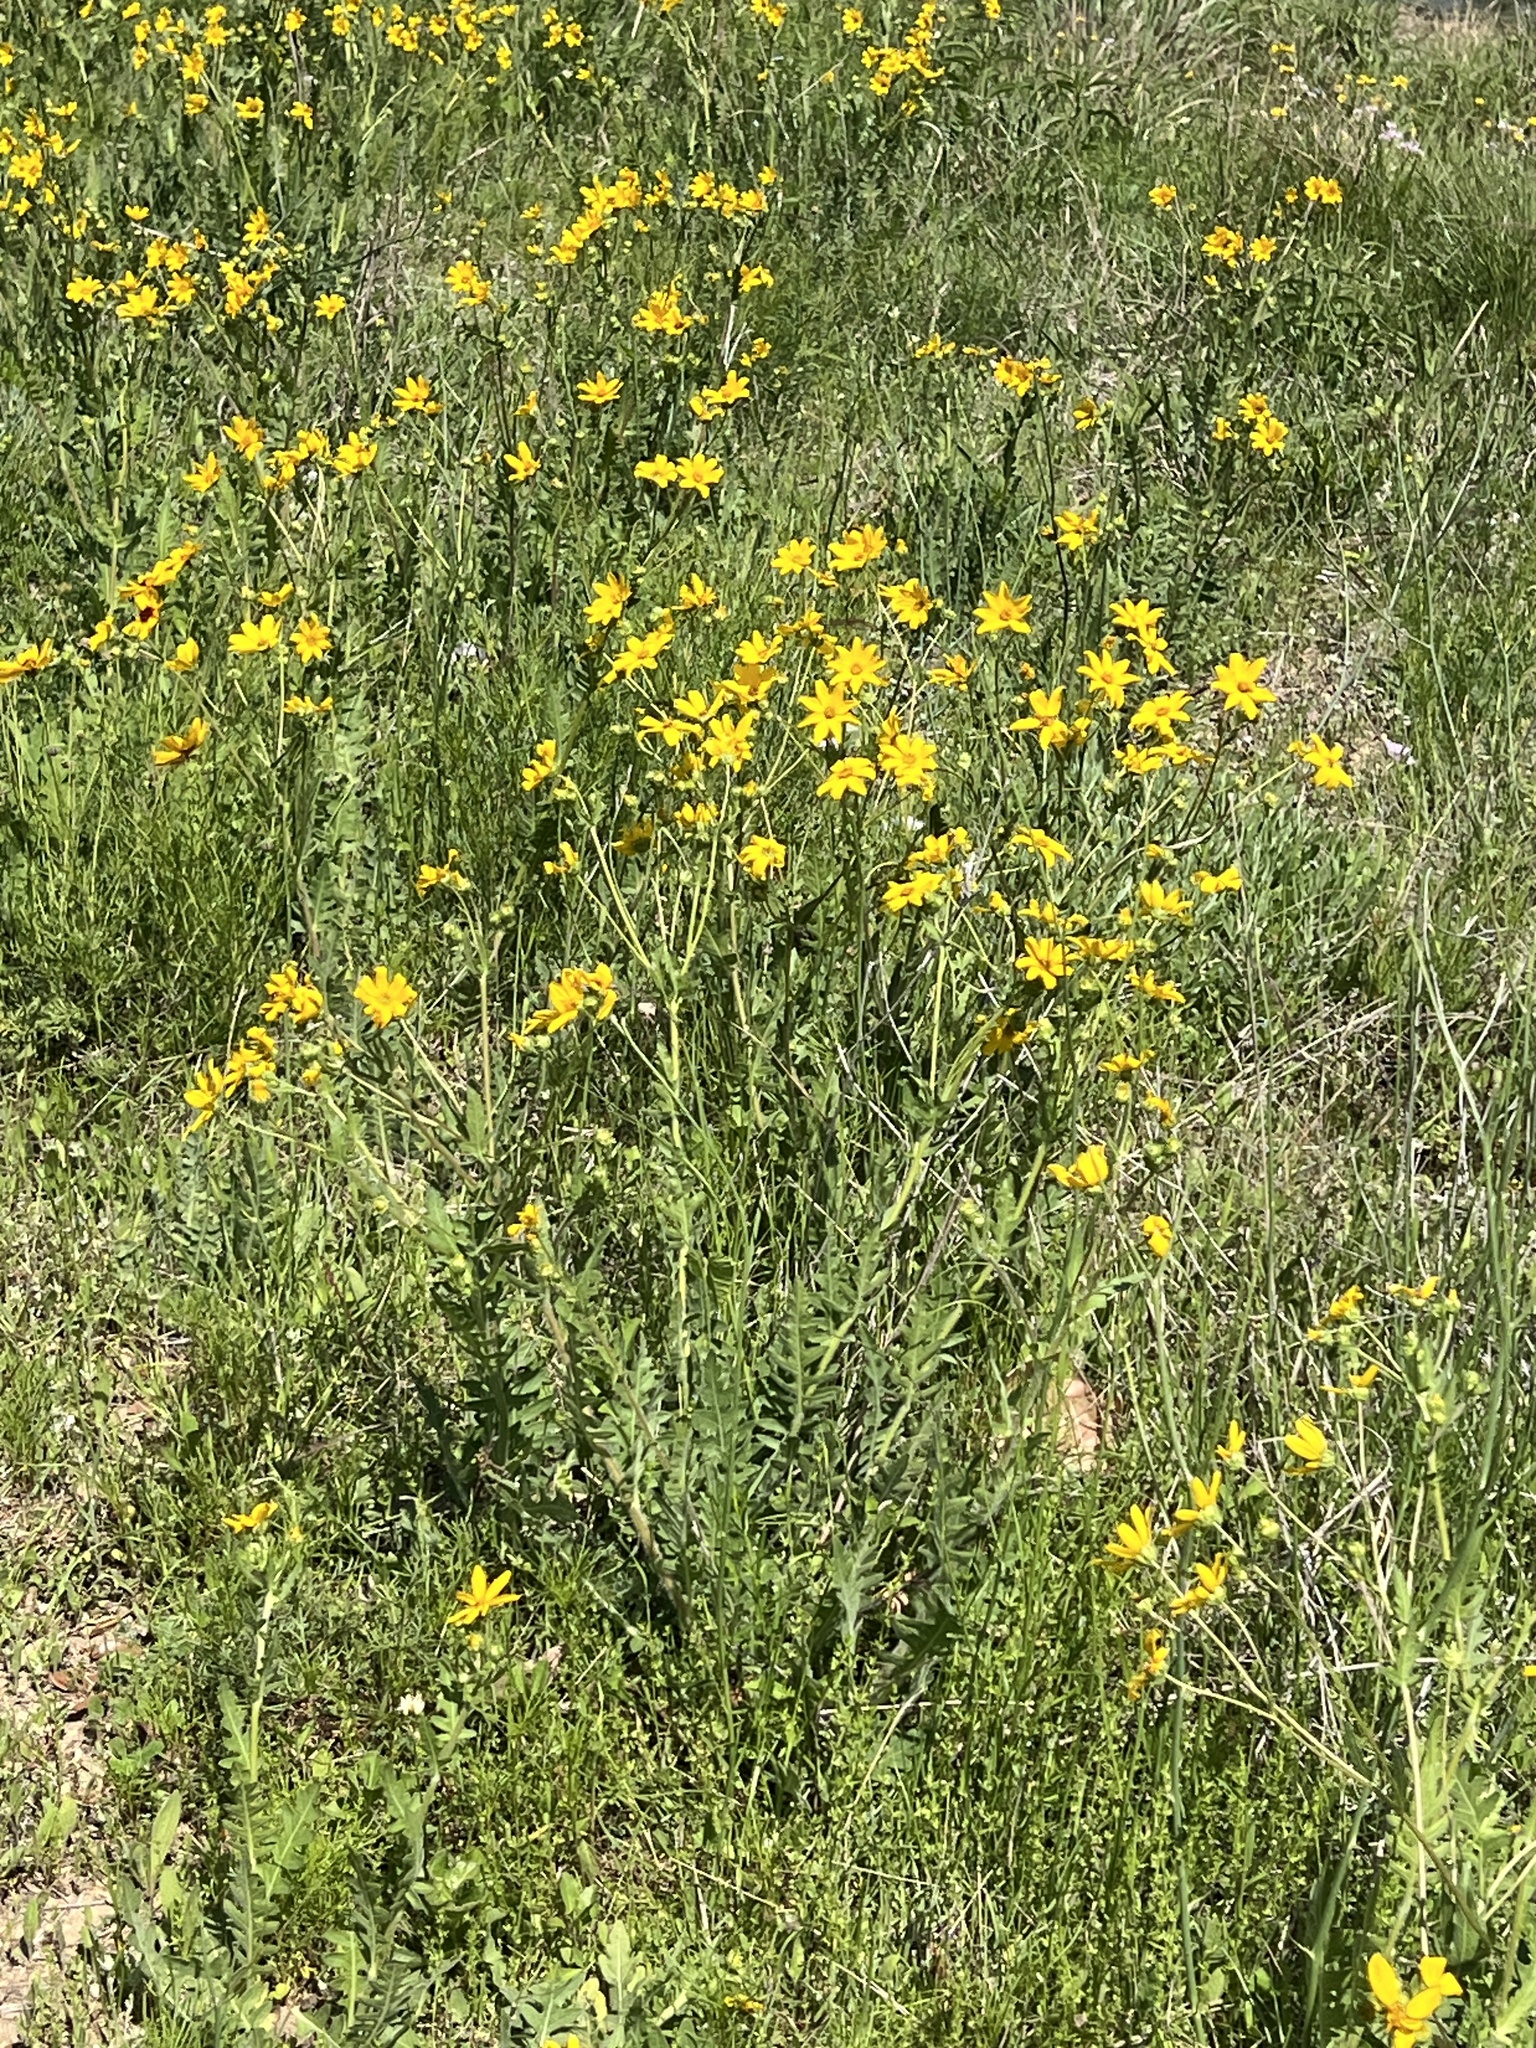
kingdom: Plantae
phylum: Tracheophyta
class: Magnoliopsida
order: Asterales
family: Asteraceae
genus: Engelmannia
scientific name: Engelmannia peristenia
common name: Engelmann's daisy
